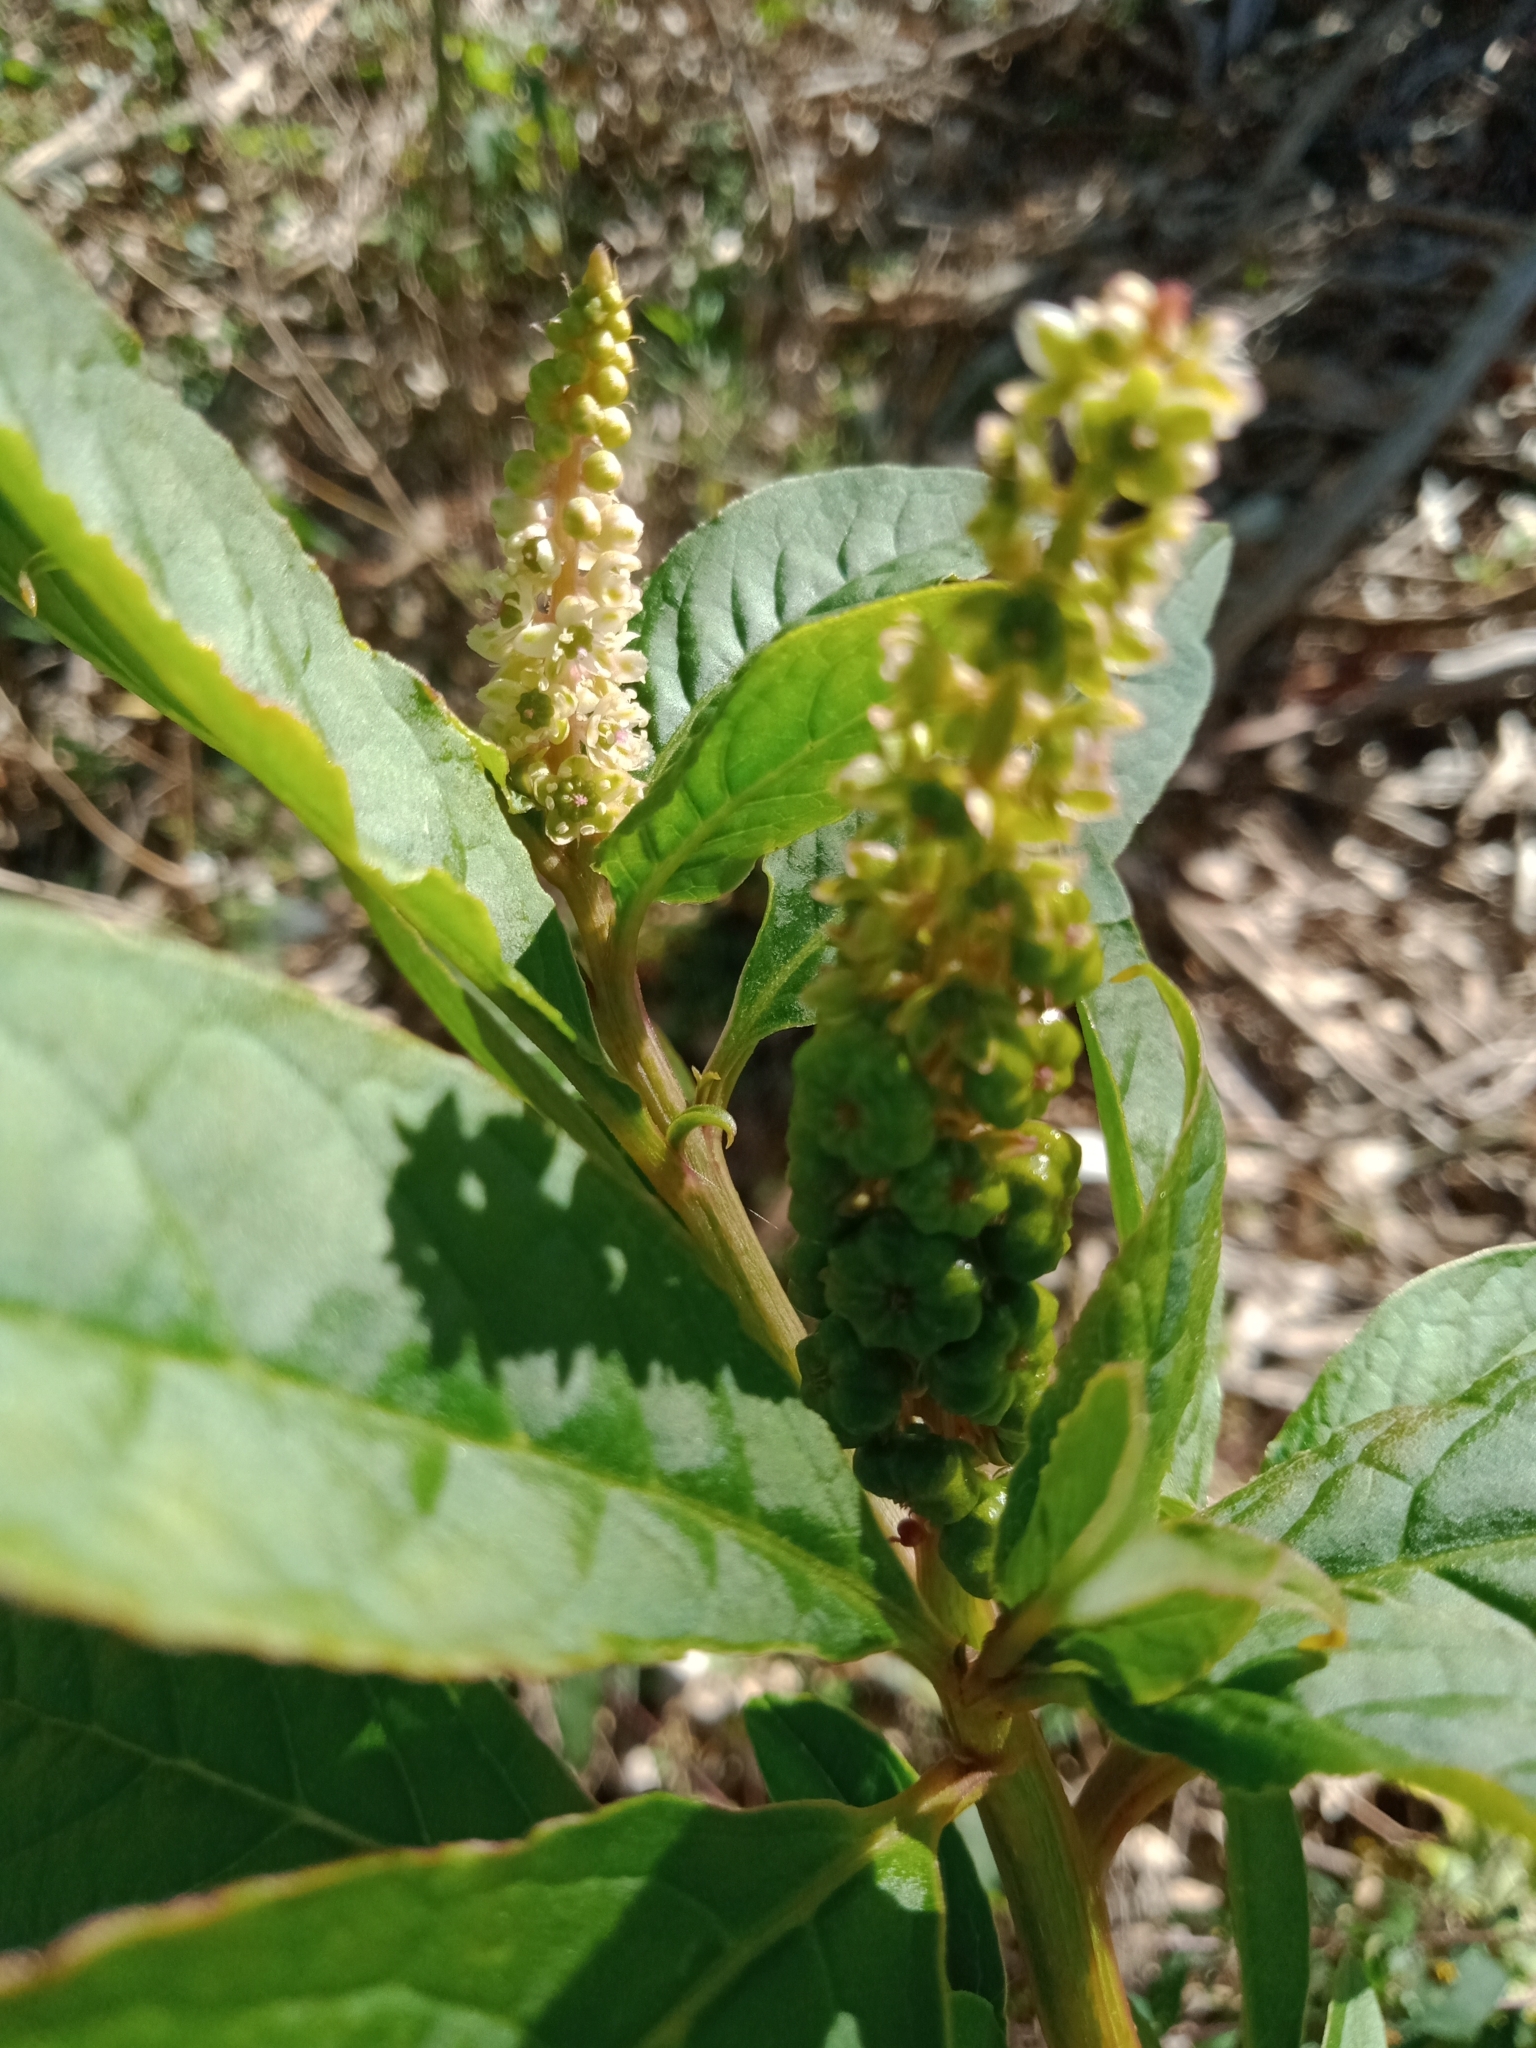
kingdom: Plantae
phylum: Tracheophyta
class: Magnoliopsida
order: Caryophyllales
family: Phytolaccaceae
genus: Phytolacca
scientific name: Phytolacca icosandra
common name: Button pokeweed
